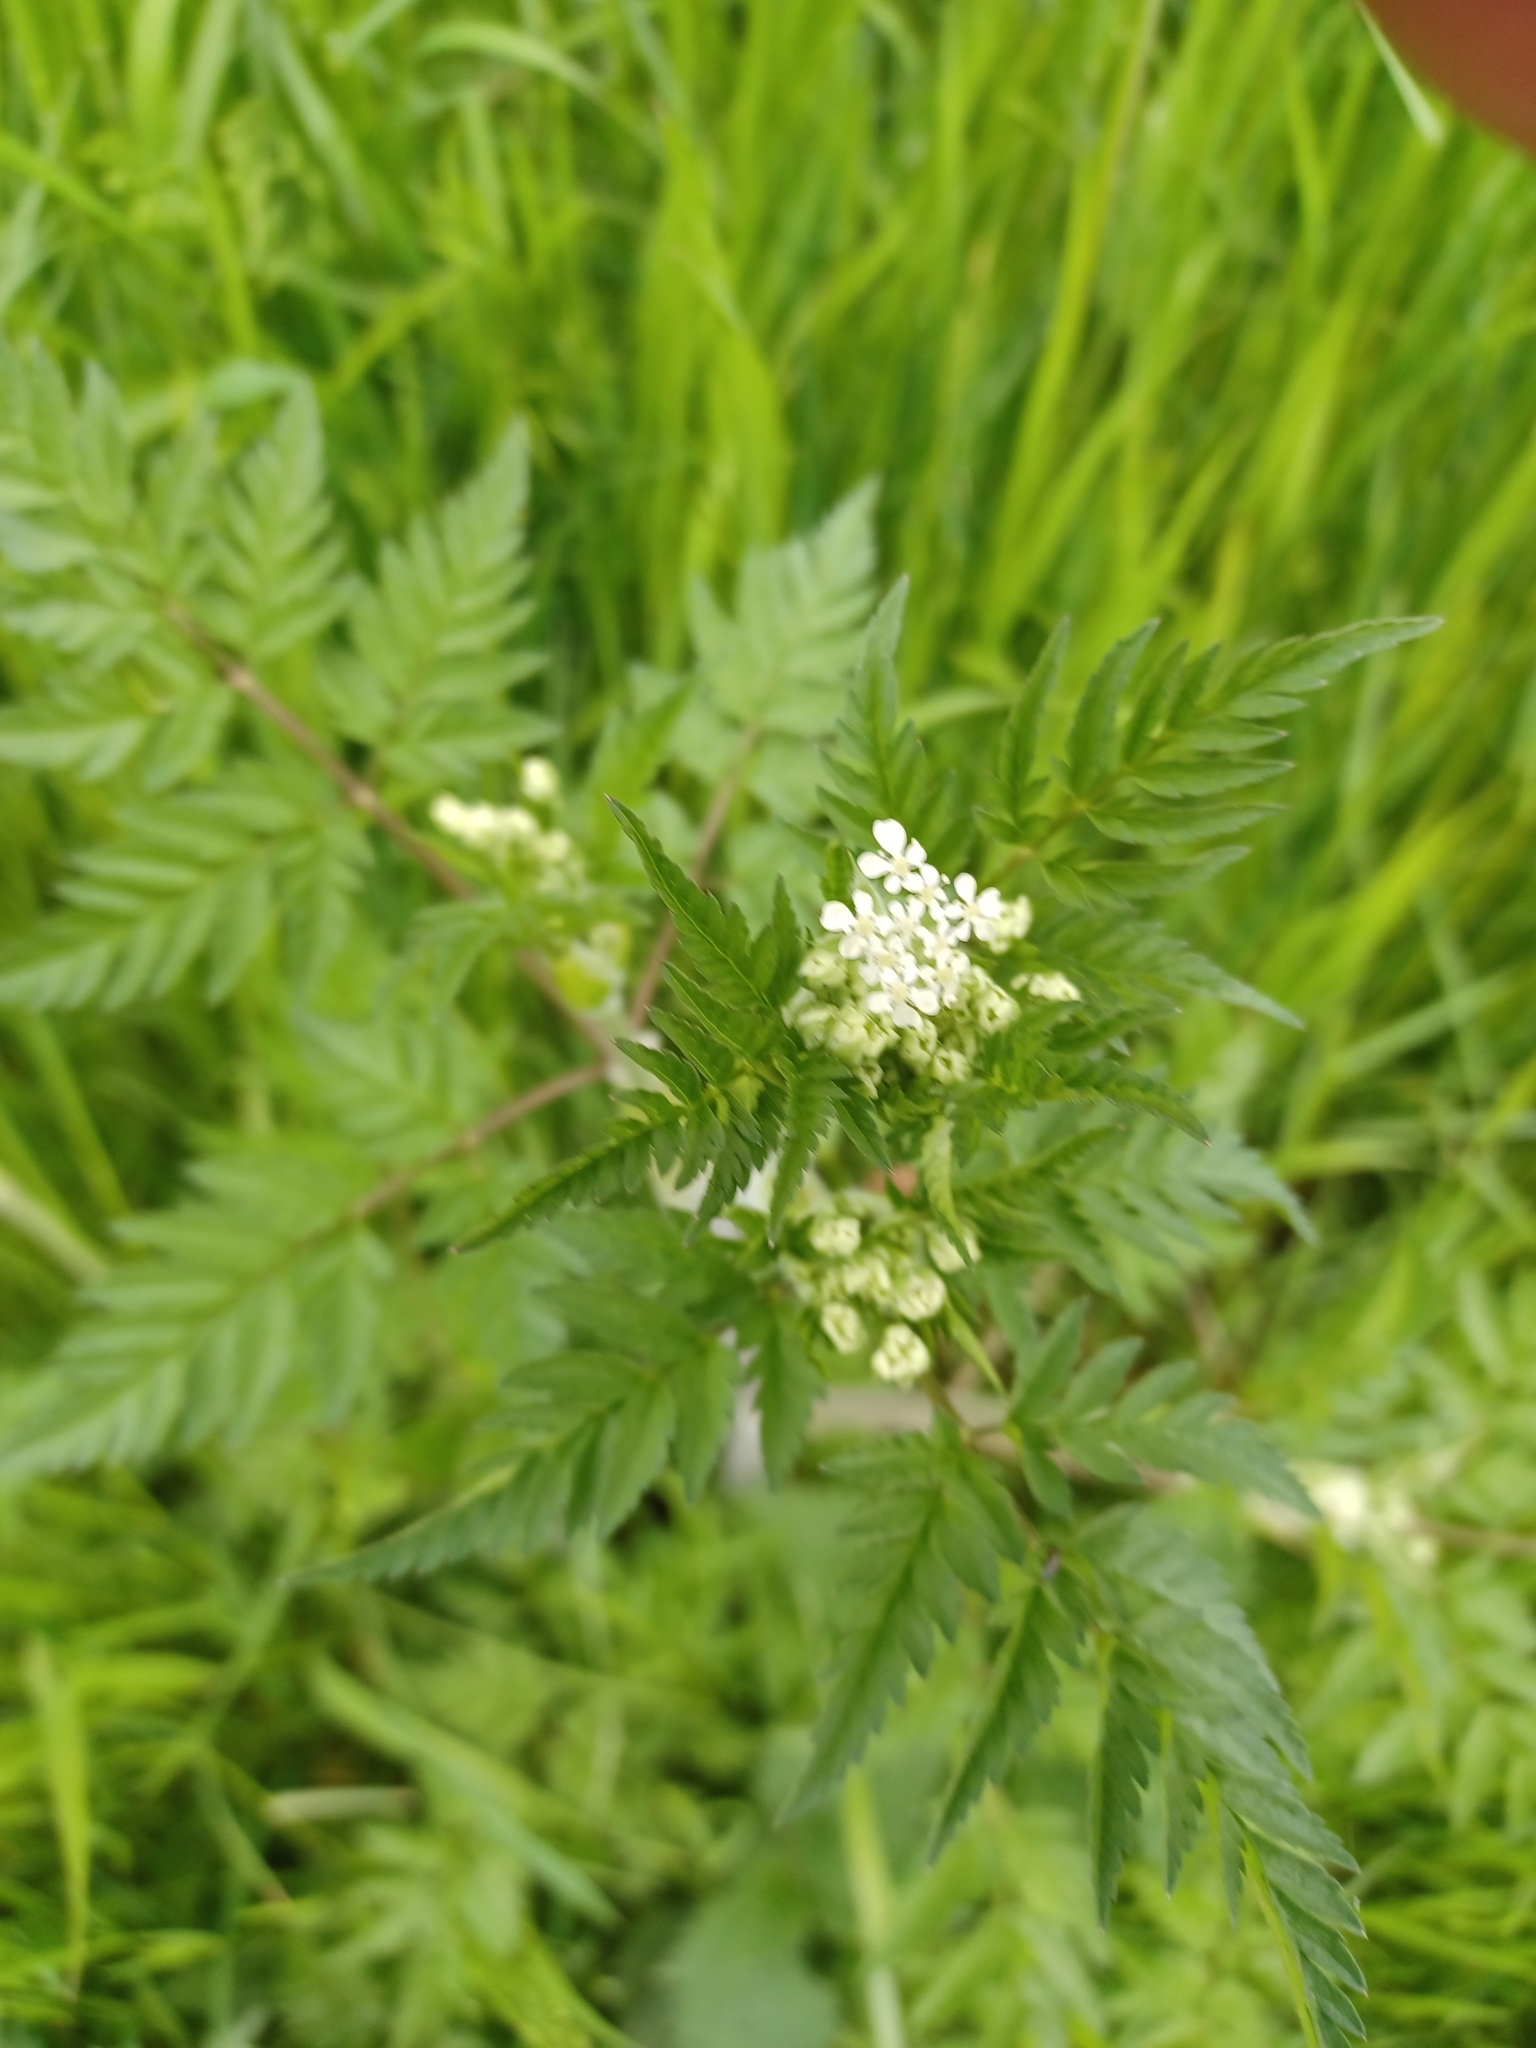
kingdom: Plantae
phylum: Tracheophyta
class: Magnoliopsida
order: Apiales
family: Apiaceae
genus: Anthriscus
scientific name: Anthriscus sylvestris
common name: Cow parsley
